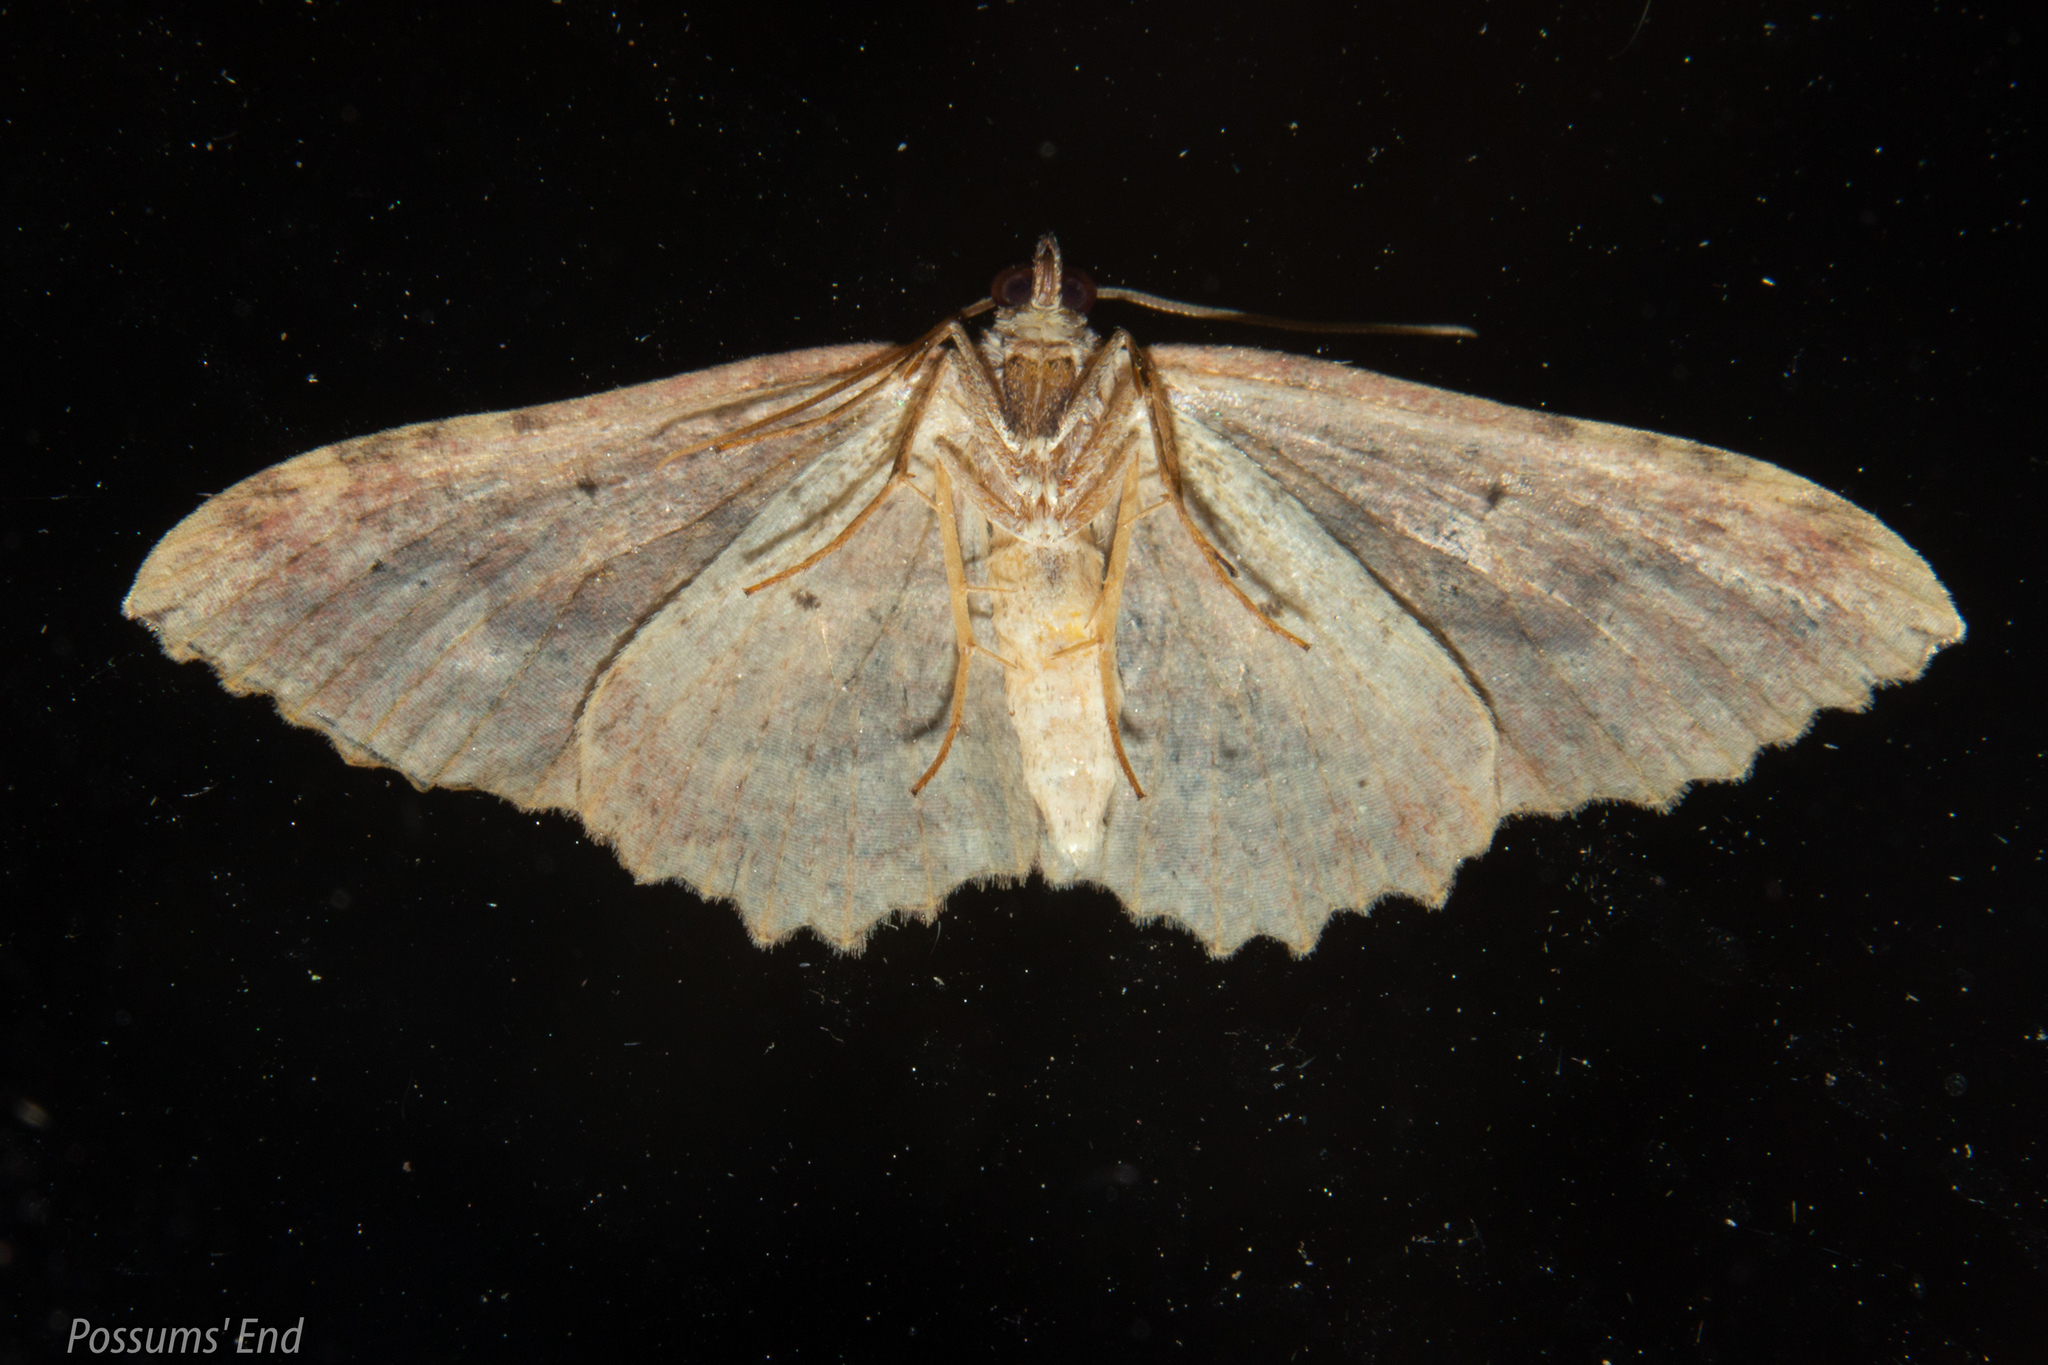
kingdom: Animalia
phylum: Arthropoda
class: Insecta
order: Lepidoptera
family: Geometridae
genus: Austrocidaria
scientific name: Austrocidaria bipartita
